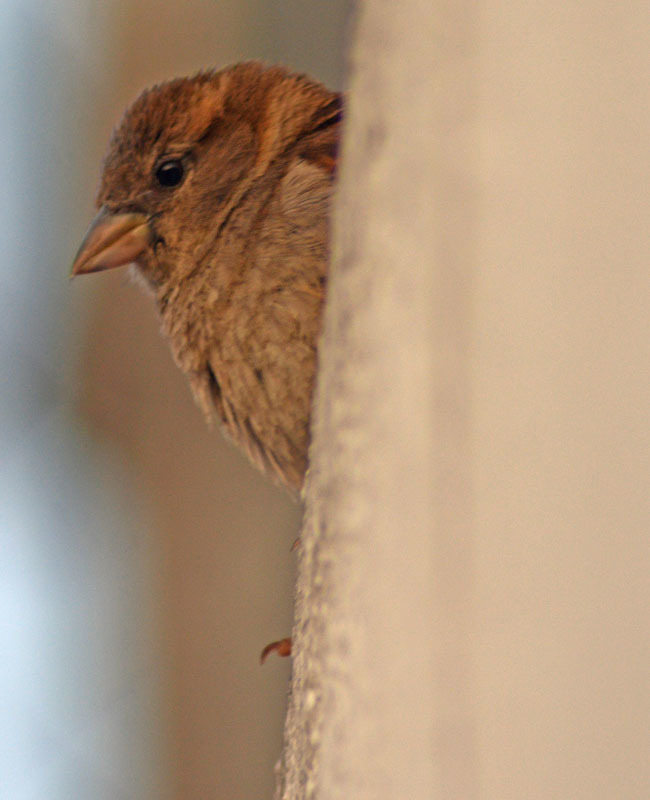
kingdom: Animalia
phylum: Chordata
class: Aves
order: Passeriformes
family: Passeridae
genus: Passer
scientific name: Passer domesticus
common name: House sparrow
